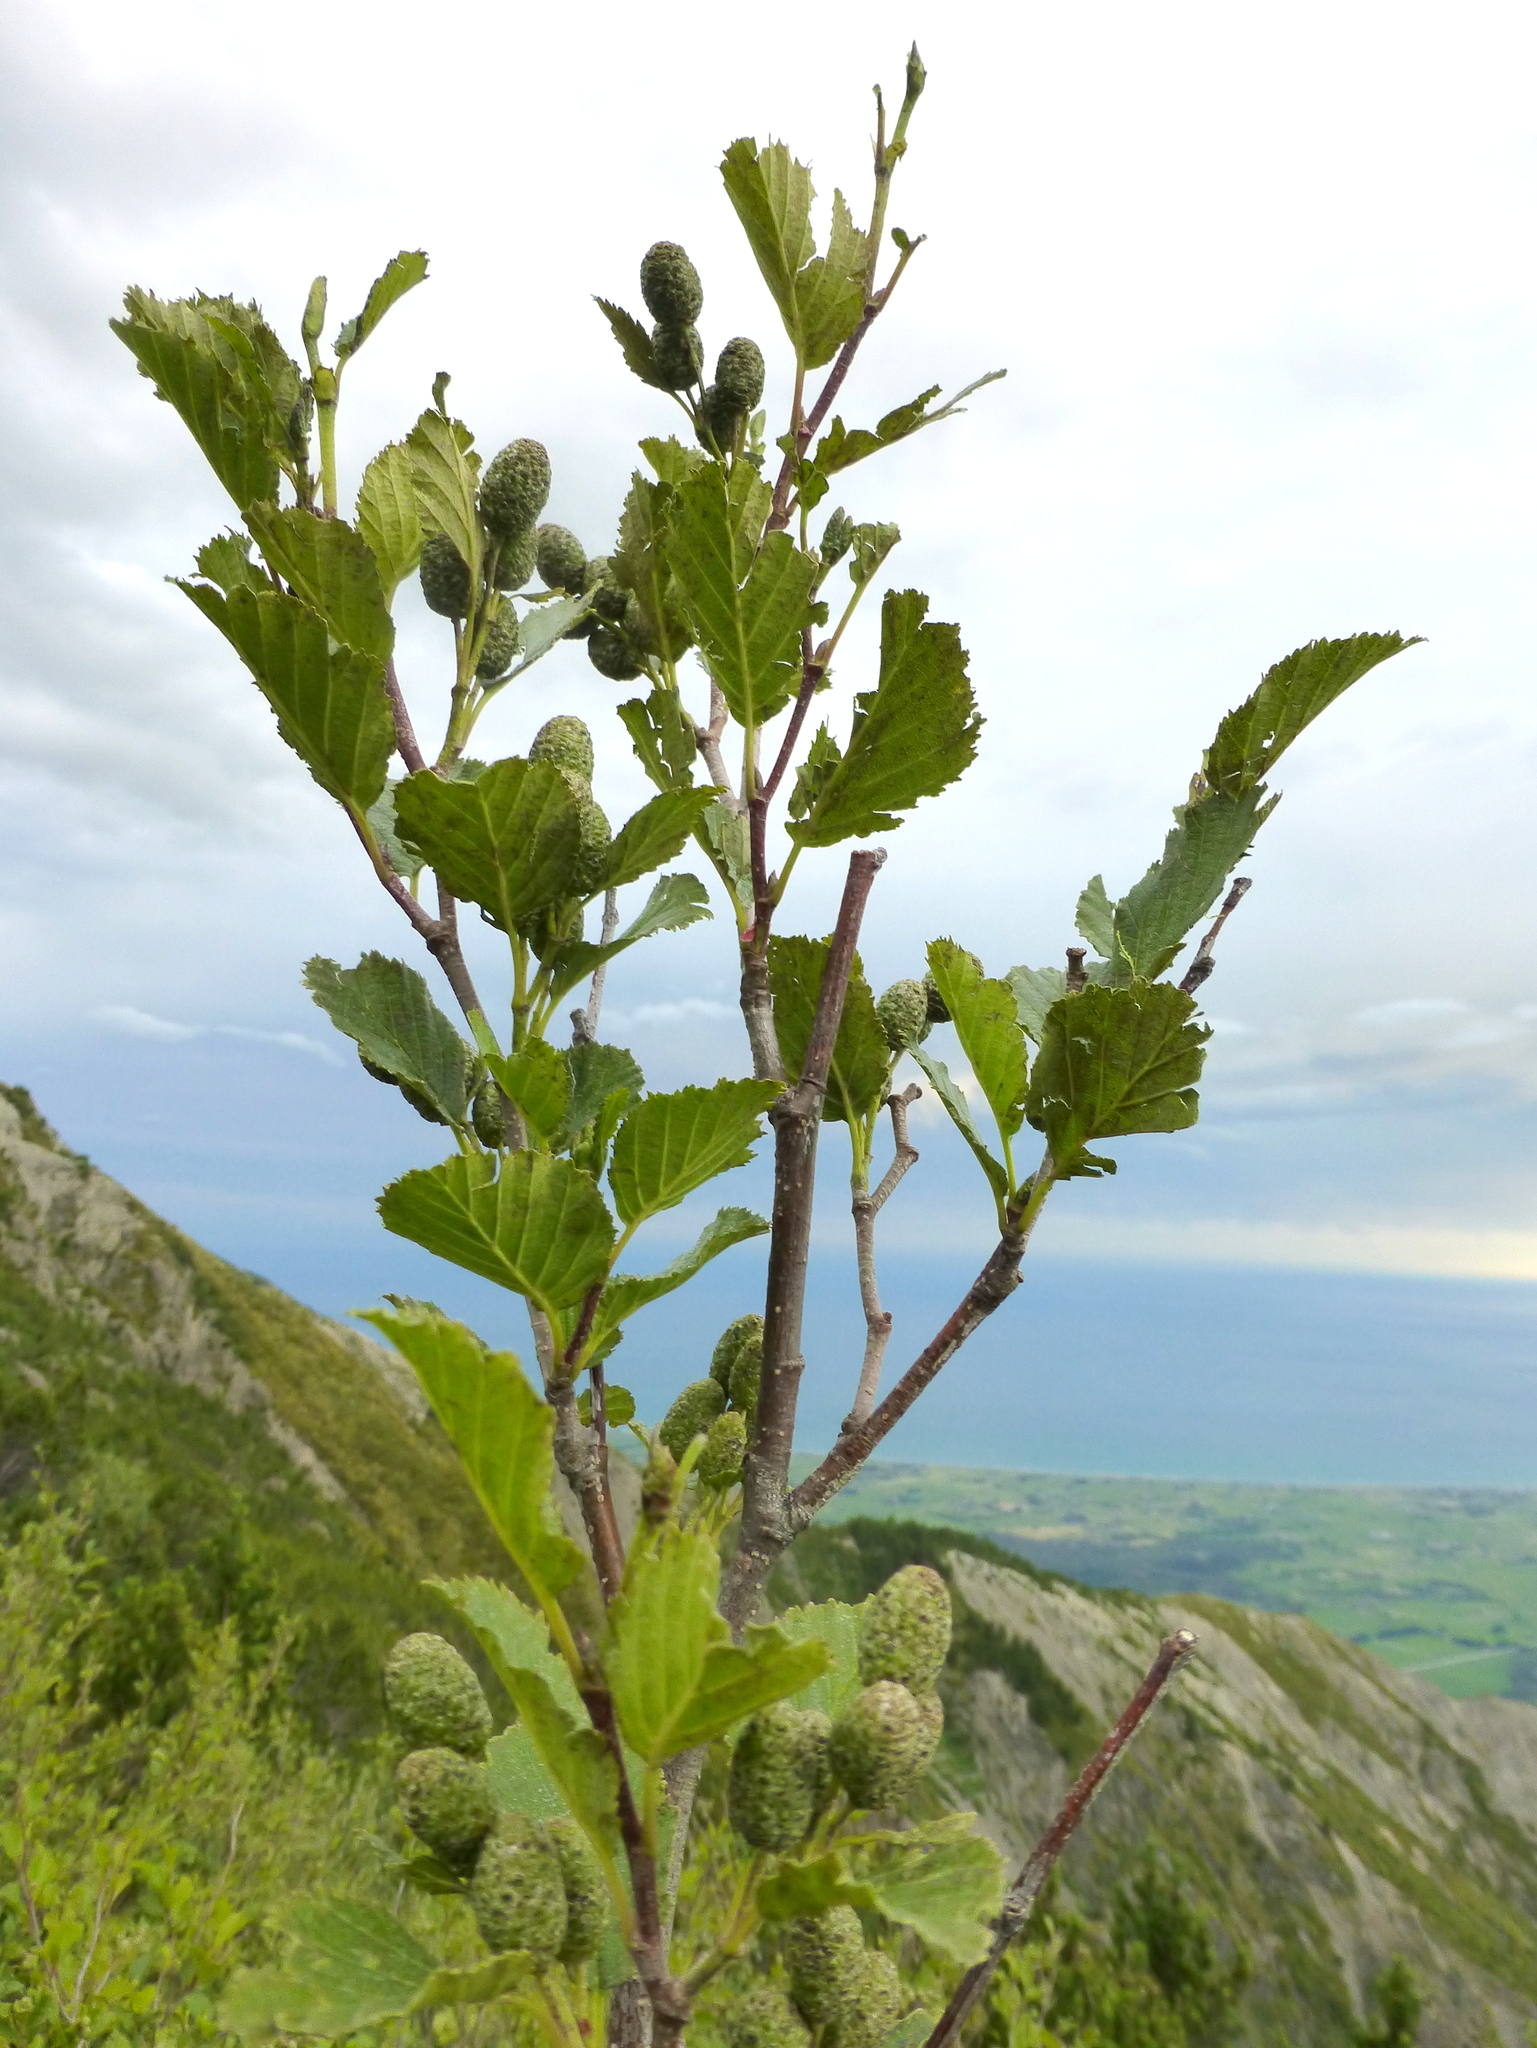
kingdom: Plantae
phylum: Tracheophyta
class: Magnoliopsida
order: Fagales
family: Betulaceae
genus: Alnus
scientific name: Alnus alnobetula
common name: Green alder
